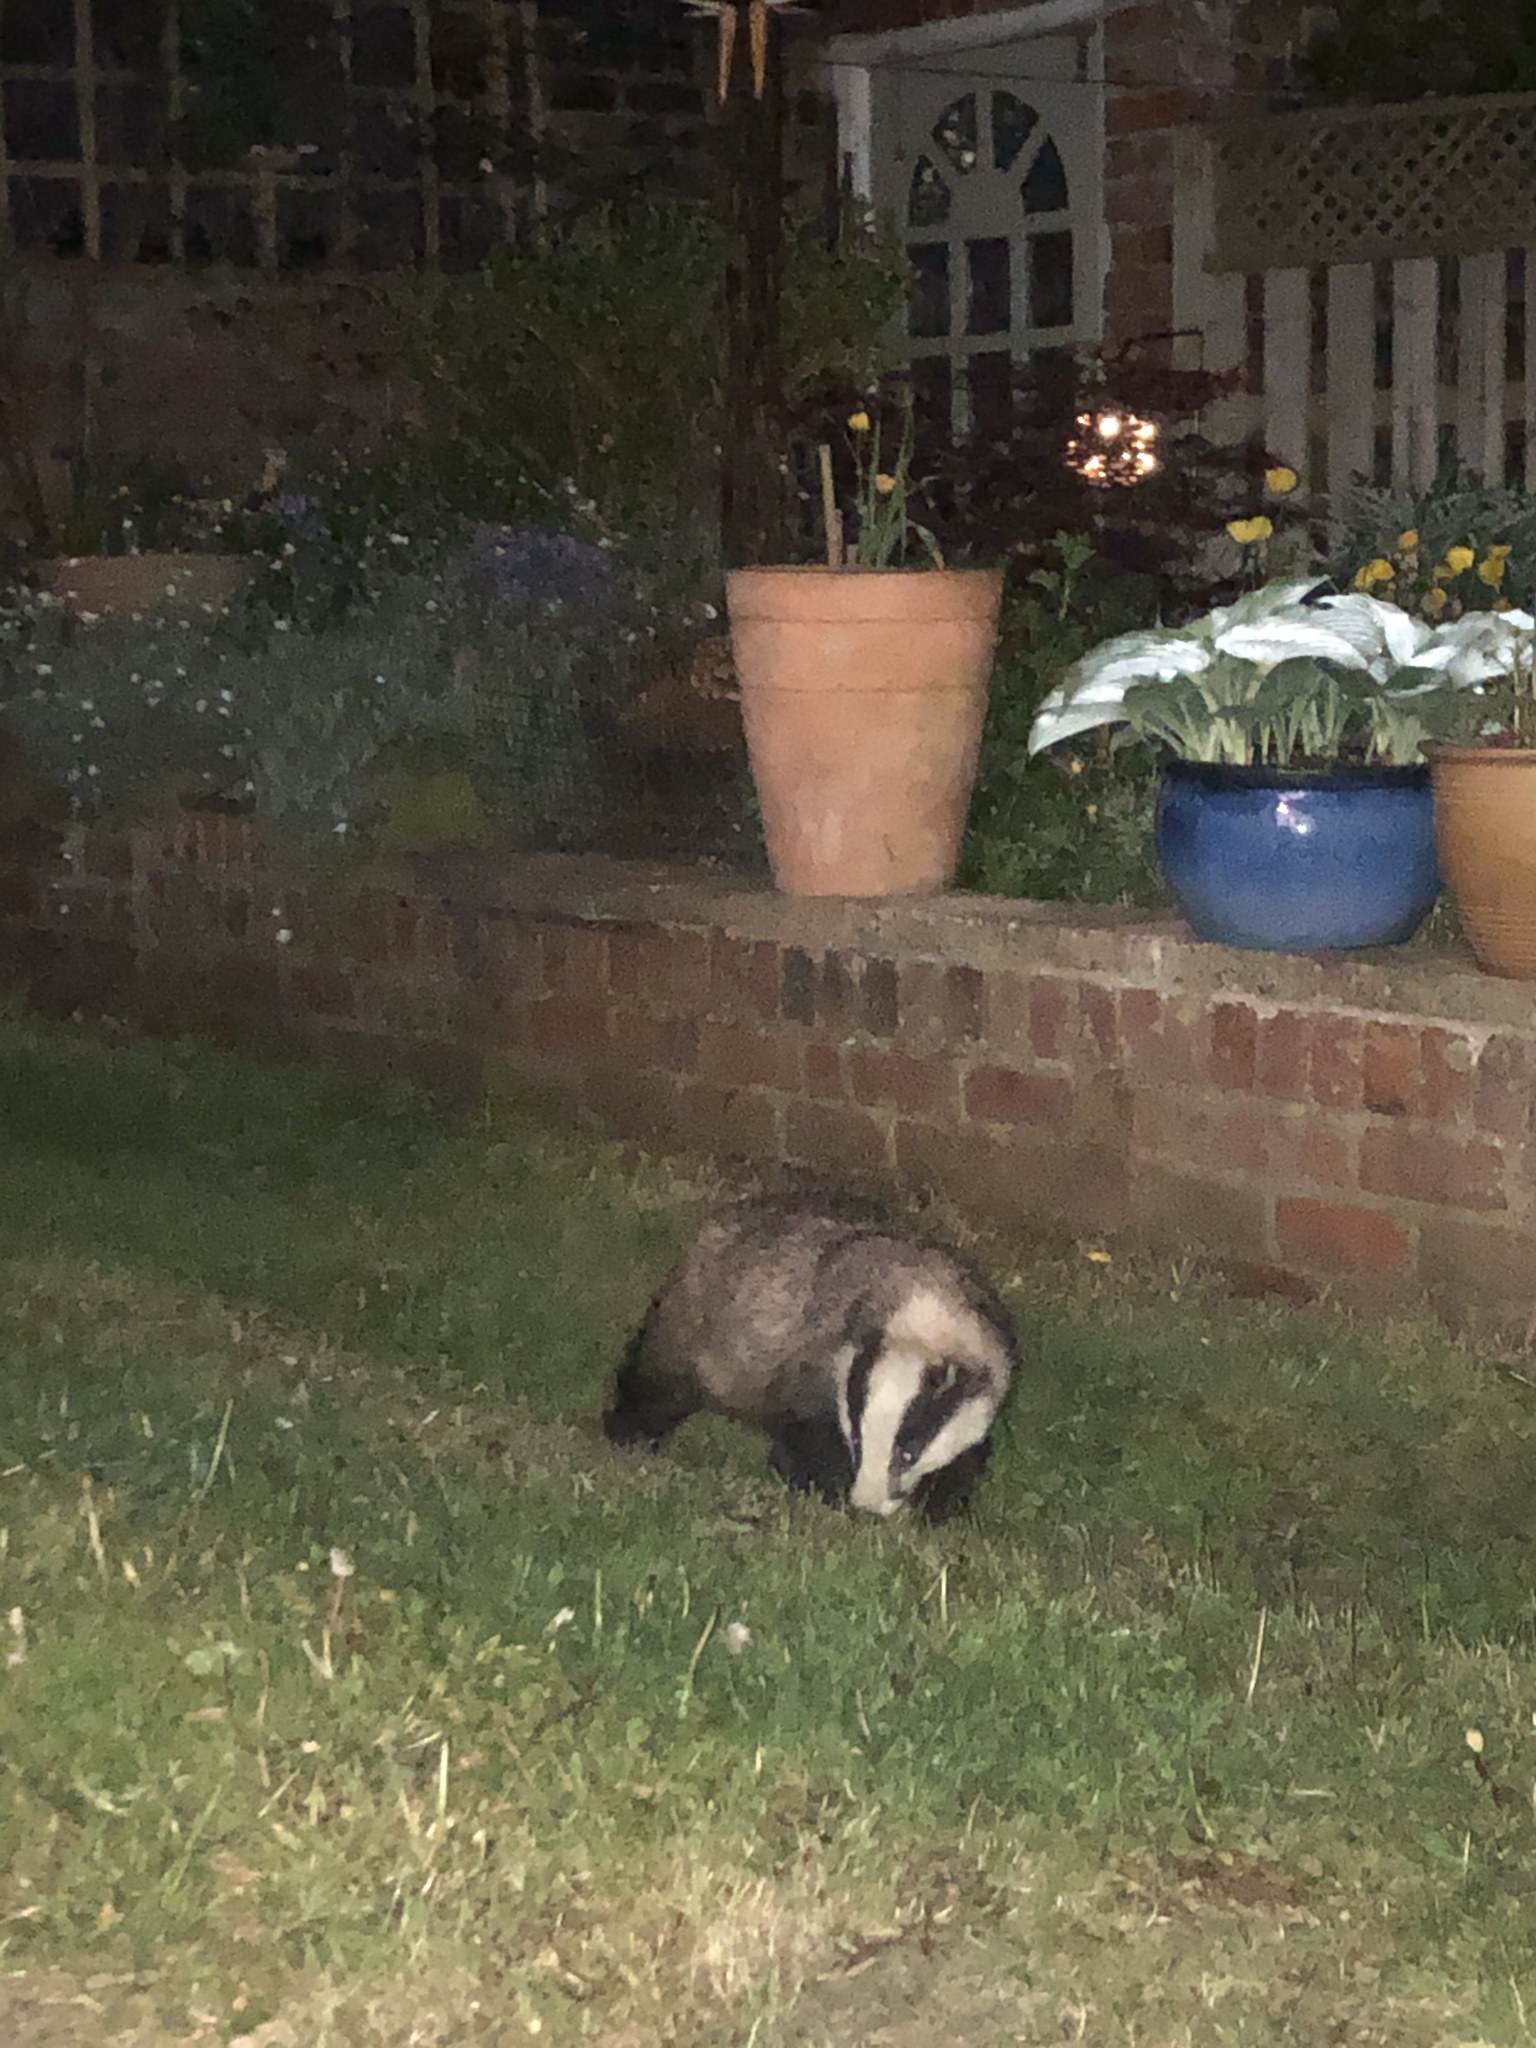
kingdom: Animalia
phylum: Chordata
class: Mammalia
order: Carnivora
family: Mustelidae
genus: Meles
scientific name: Meles meles
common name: Eurasian badger
